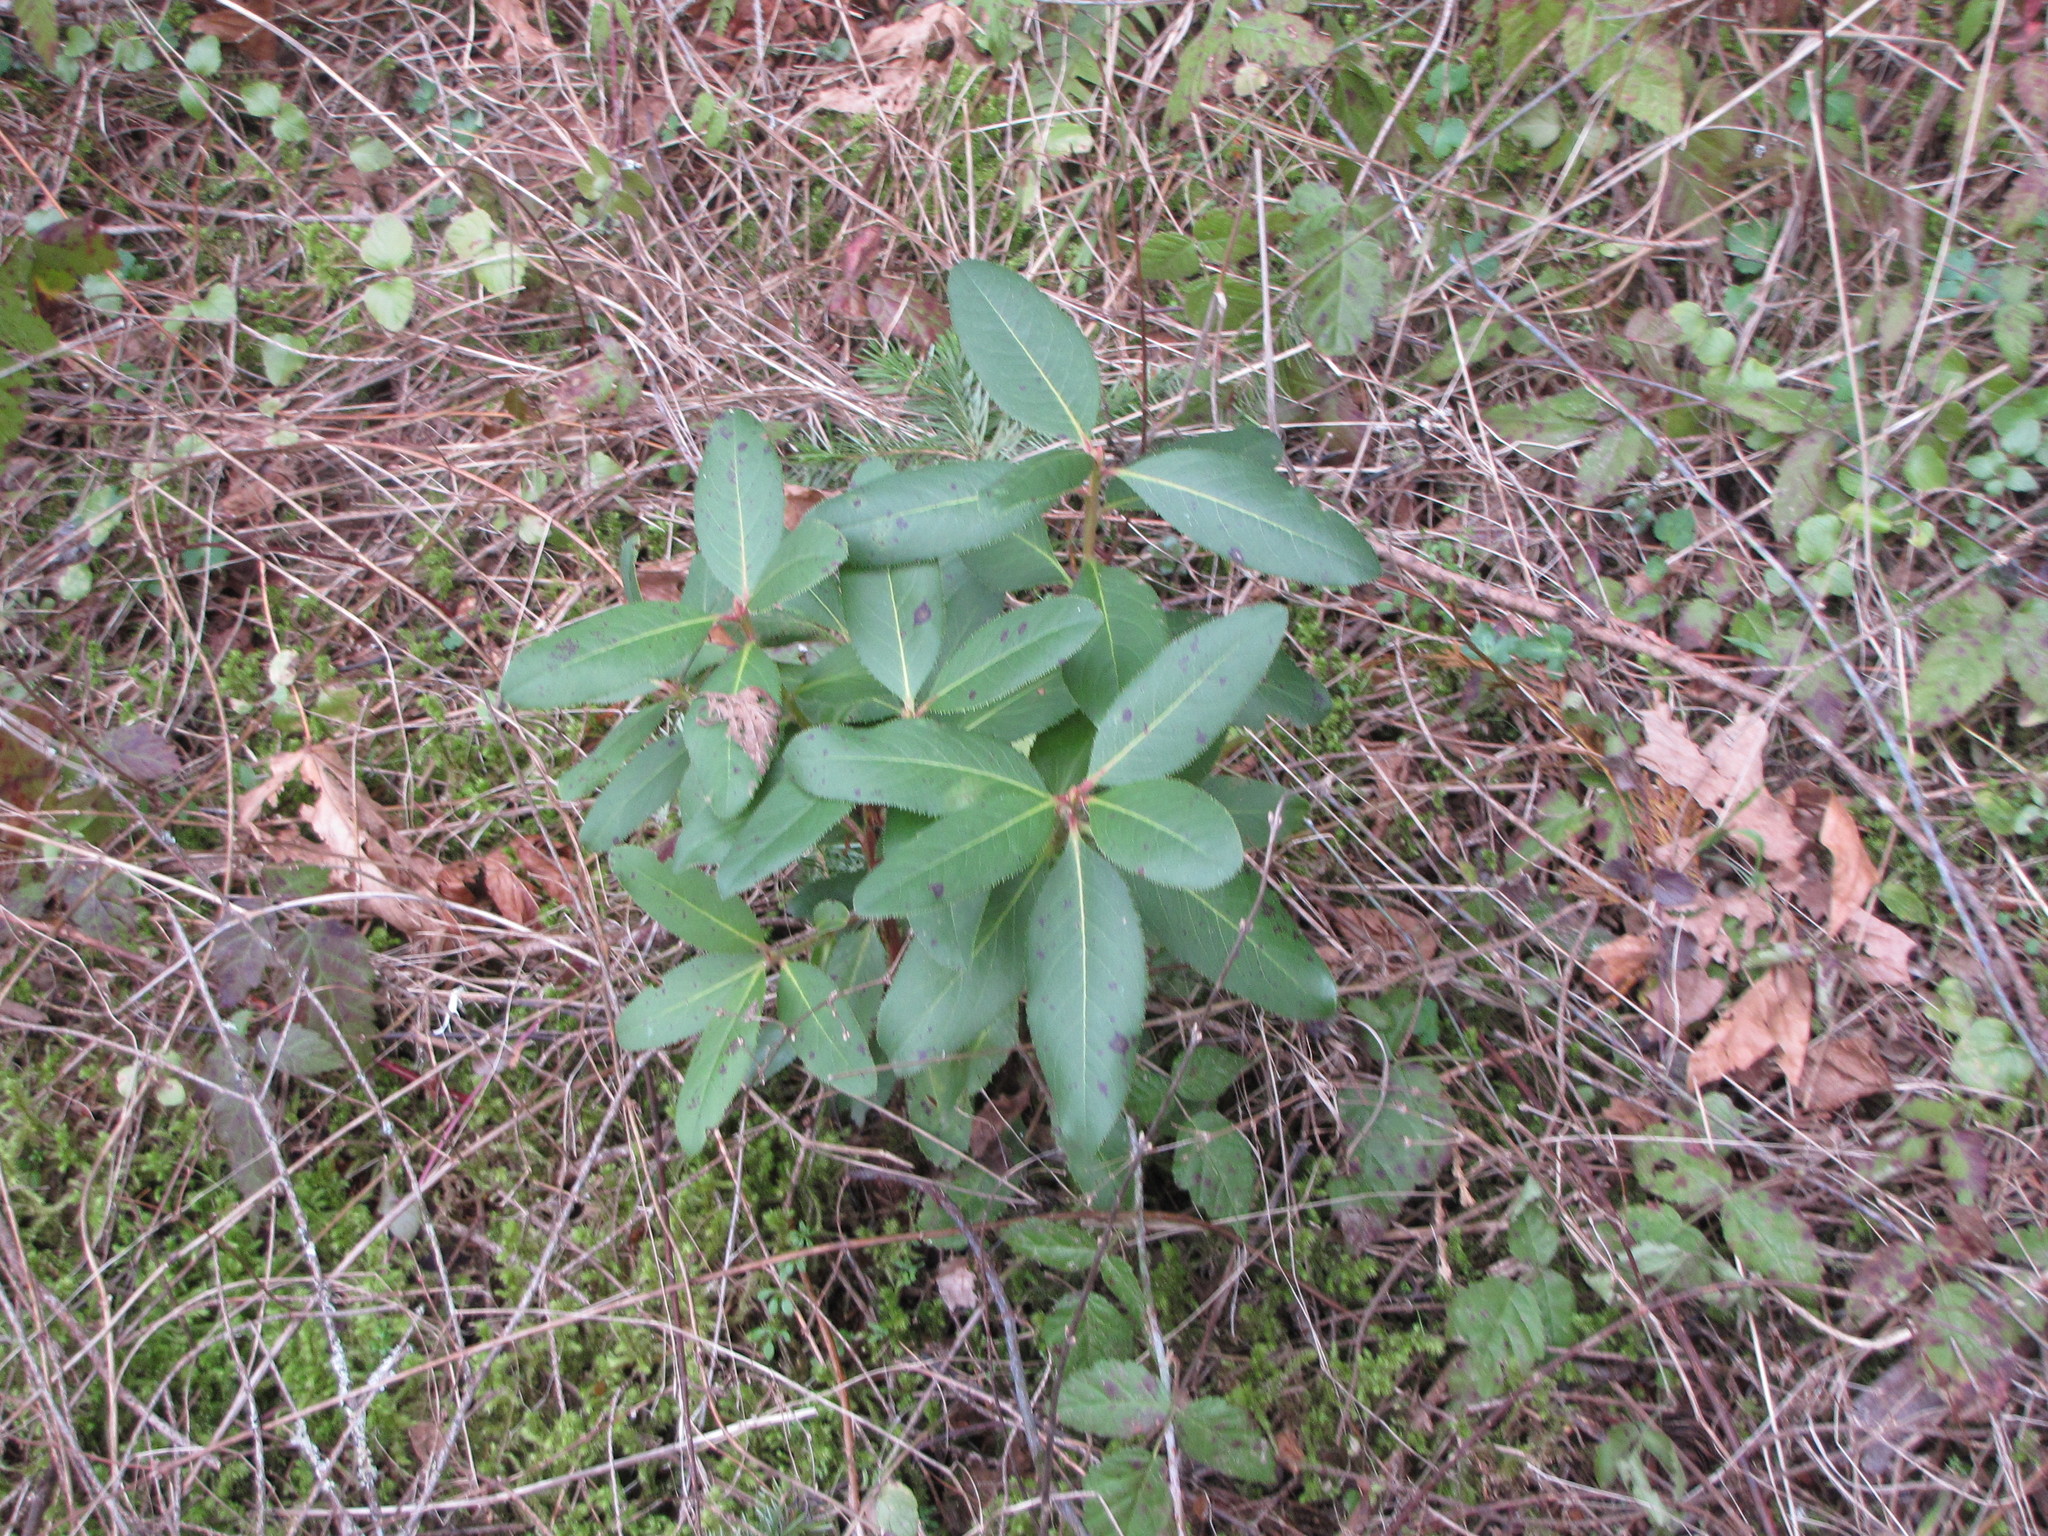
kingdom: Plantae
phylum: Tracheophyta
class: Magnoliopsida
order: Ericales
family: Ericaceae
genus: Arbutus
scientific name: Arbutus menziesii
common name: Pacific madrone
